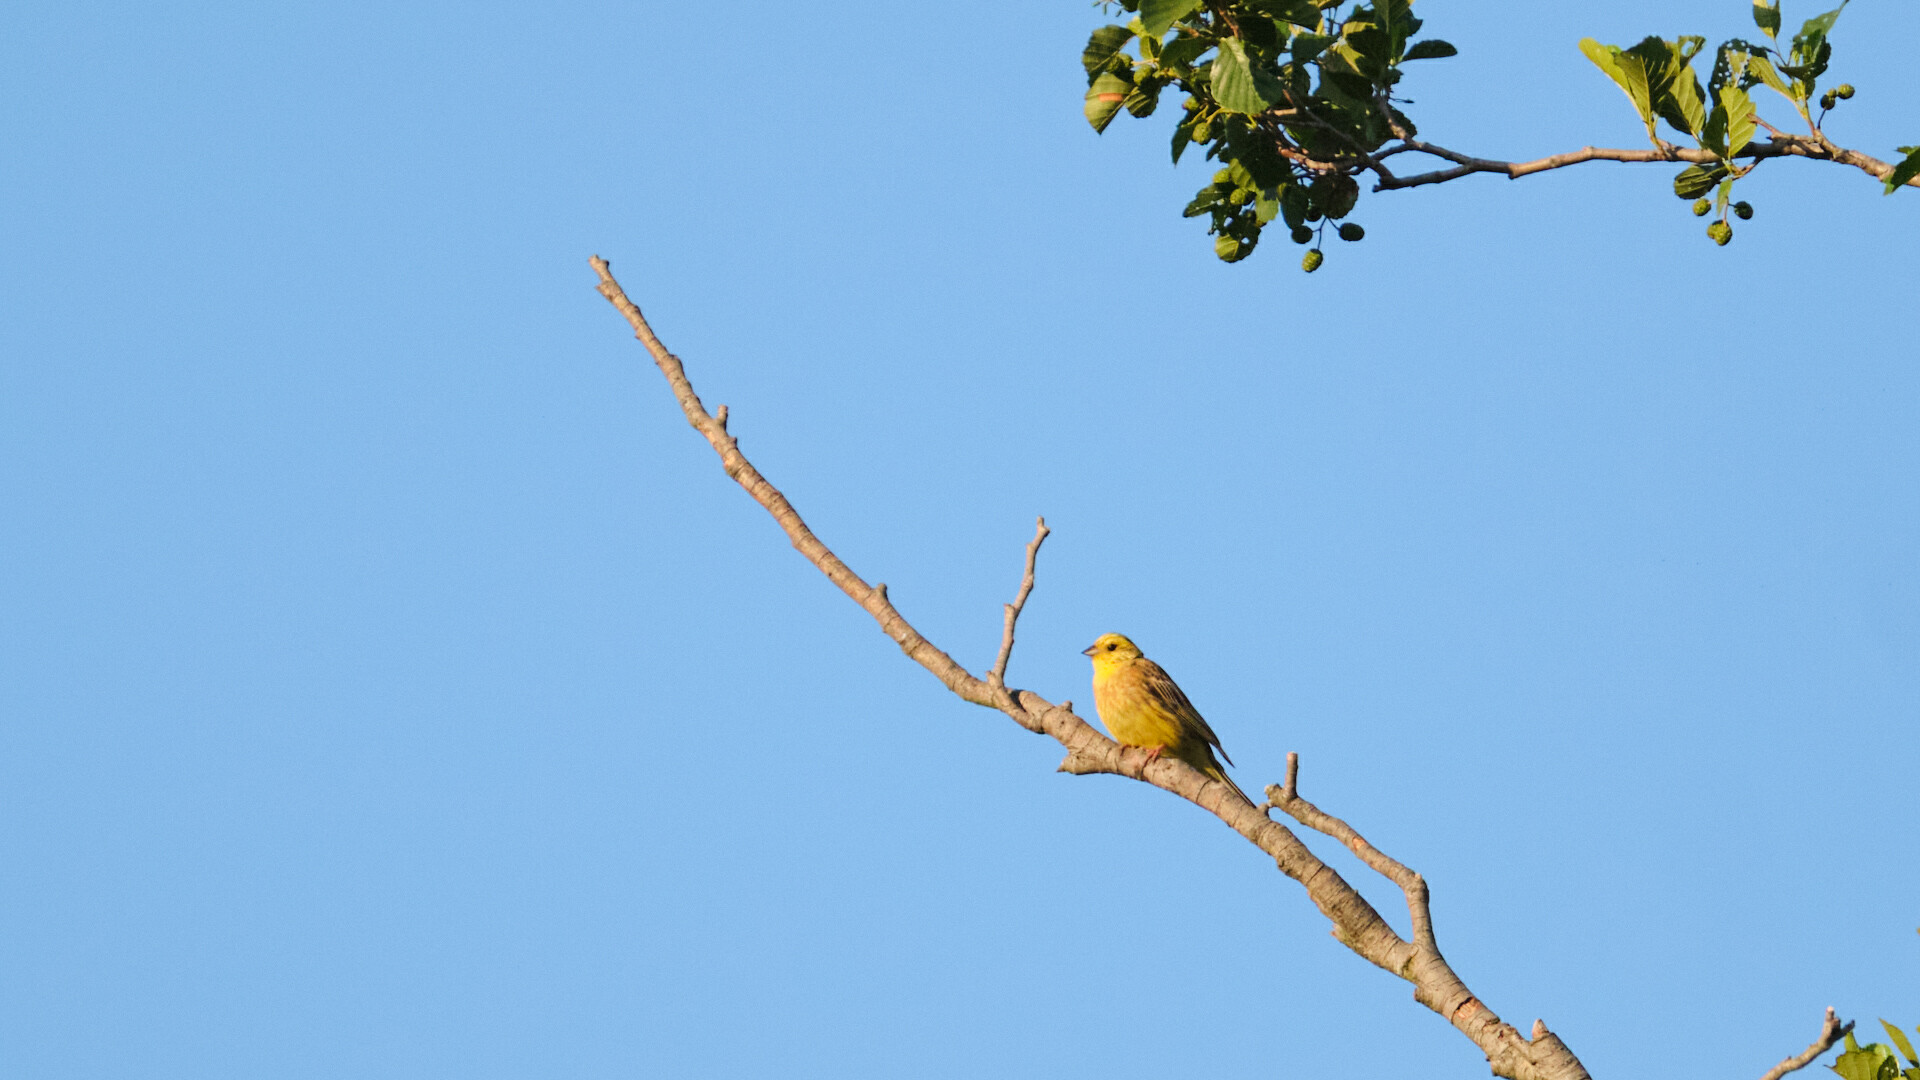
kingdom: Animalia
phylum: Chordata
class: Aves
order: Passeriformes
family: Emberizidae
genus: Emberiza
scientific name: Emberiza citrinella
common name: Yellowhammer
